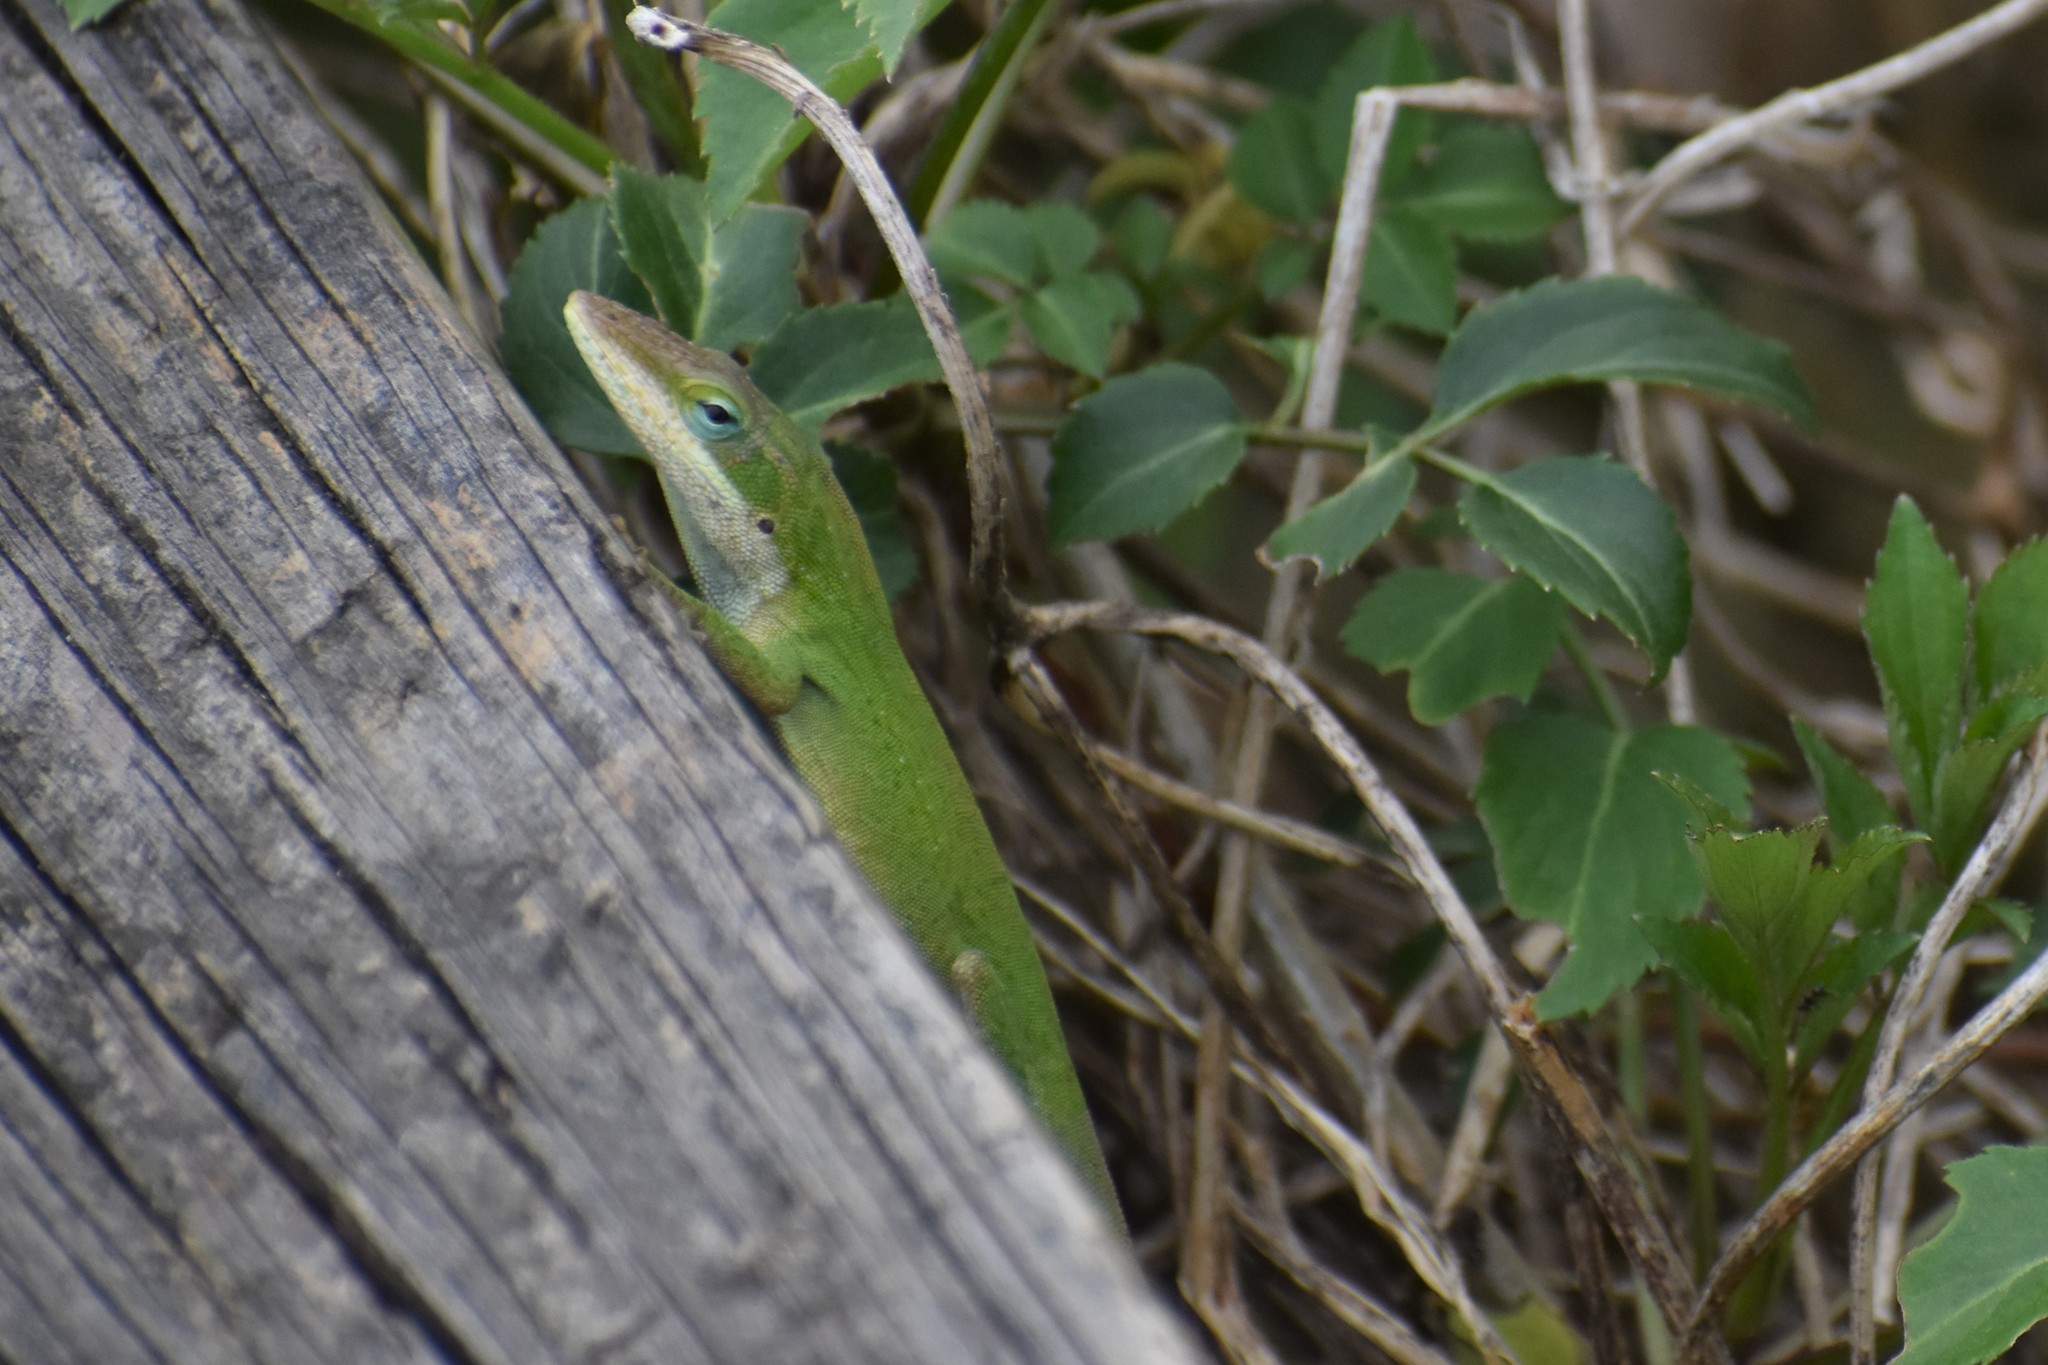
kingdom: Animalia
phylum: Chordata
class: Squamata
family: Dactyloidae
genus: Anolis
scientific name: Anolis carolinensis
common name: Green anole
